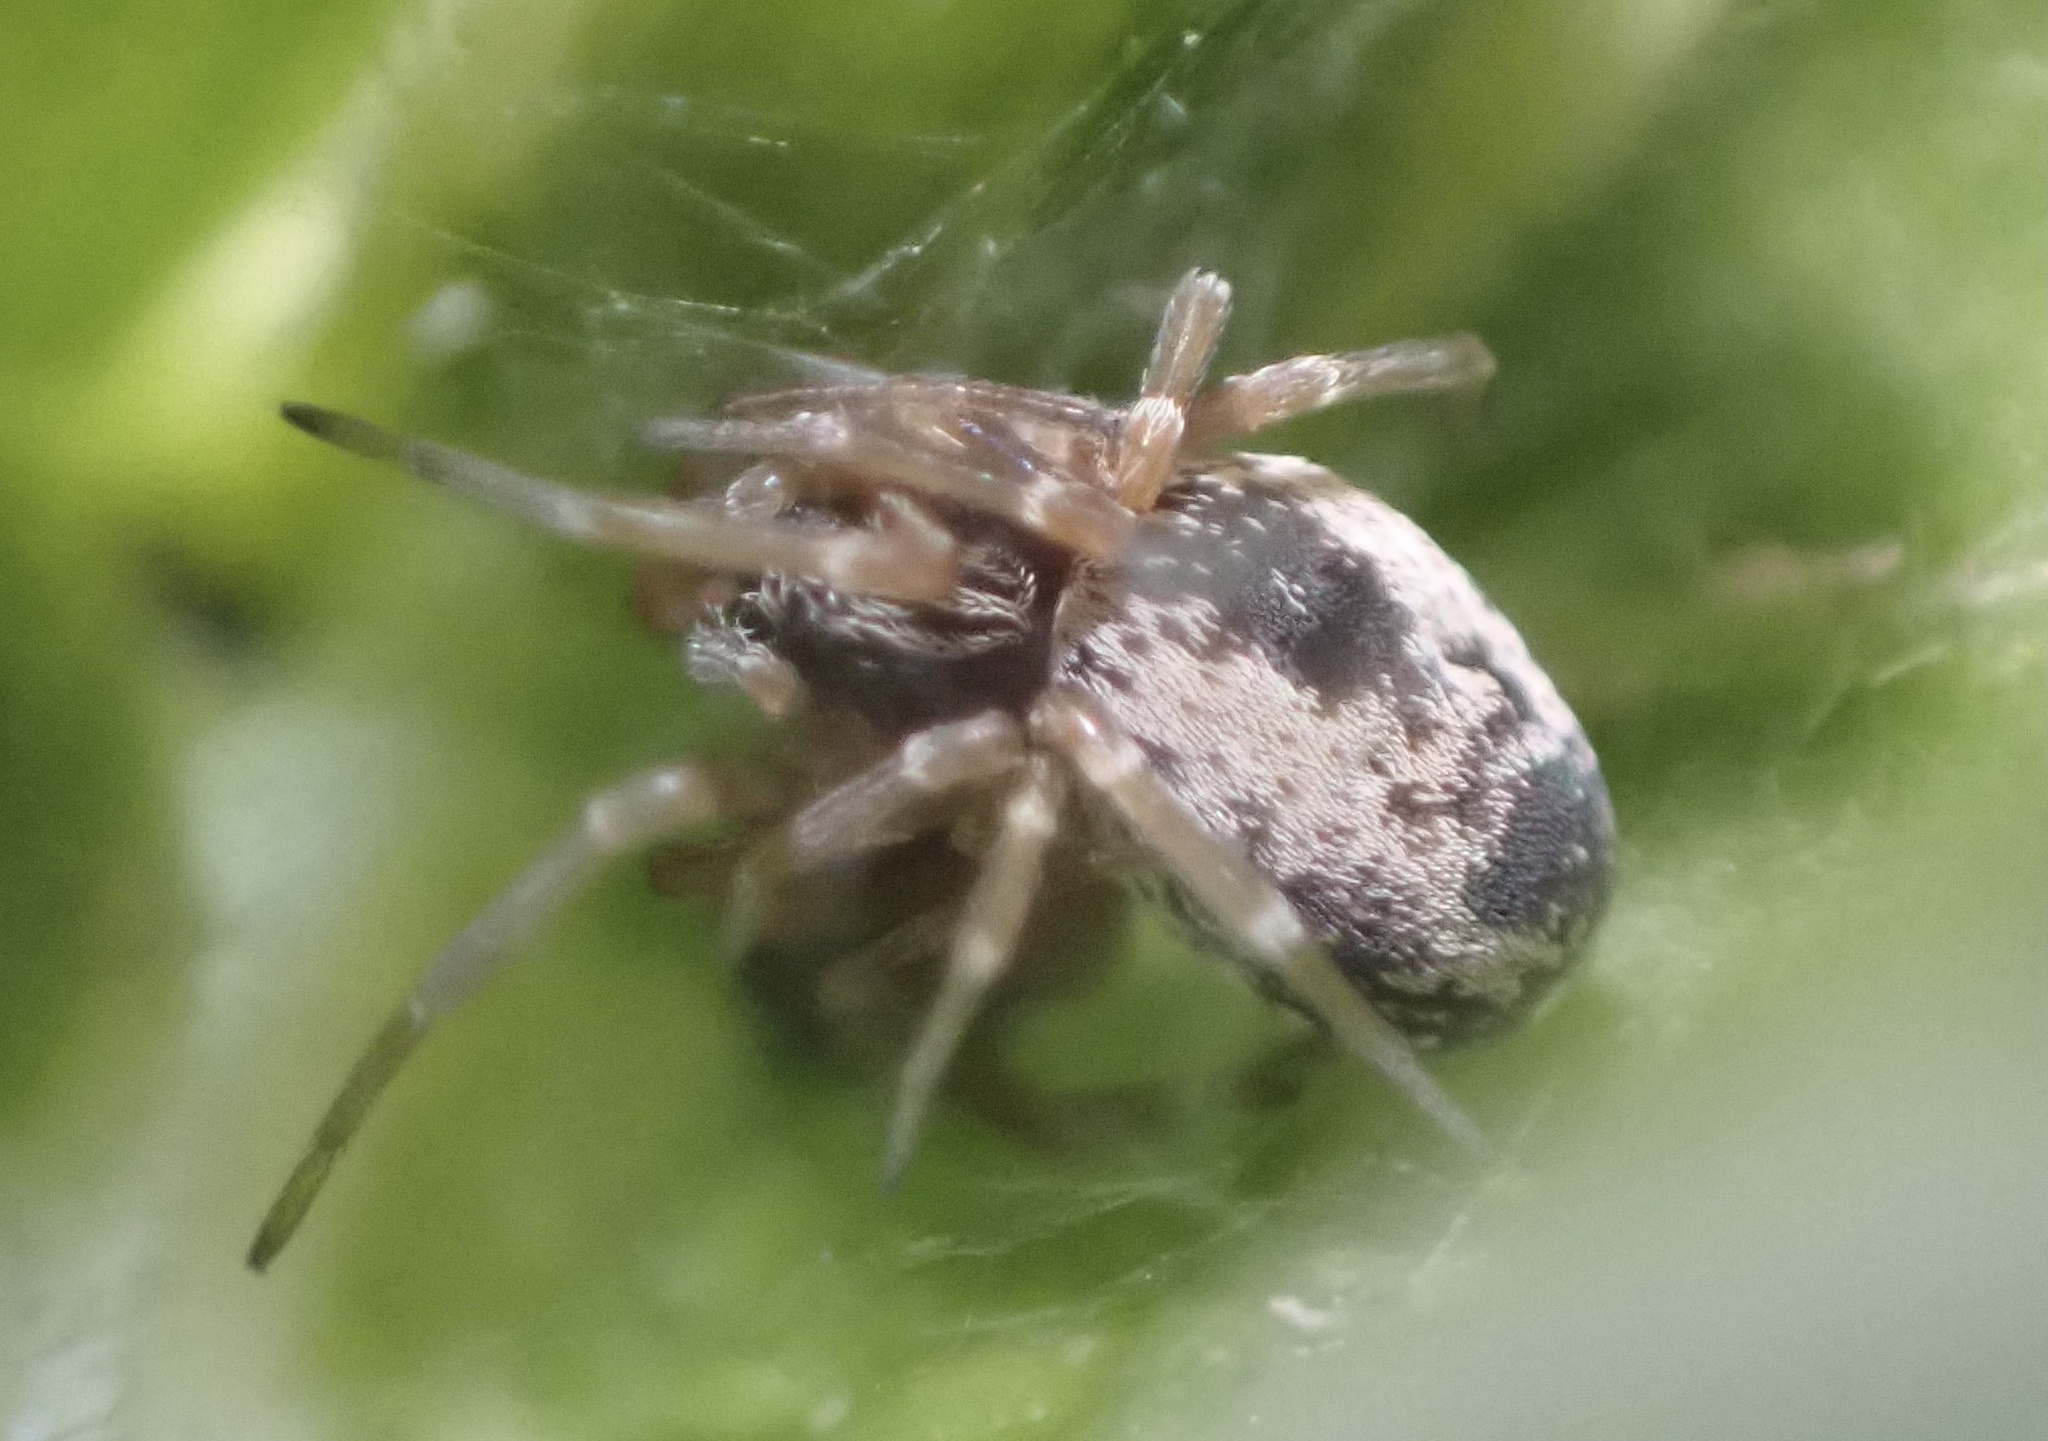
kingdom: Animalia
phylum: Arthropoda
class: Arachnida
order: Araneae
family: Dictynidae
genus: Dictyna
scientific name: Dictyna uncinata
